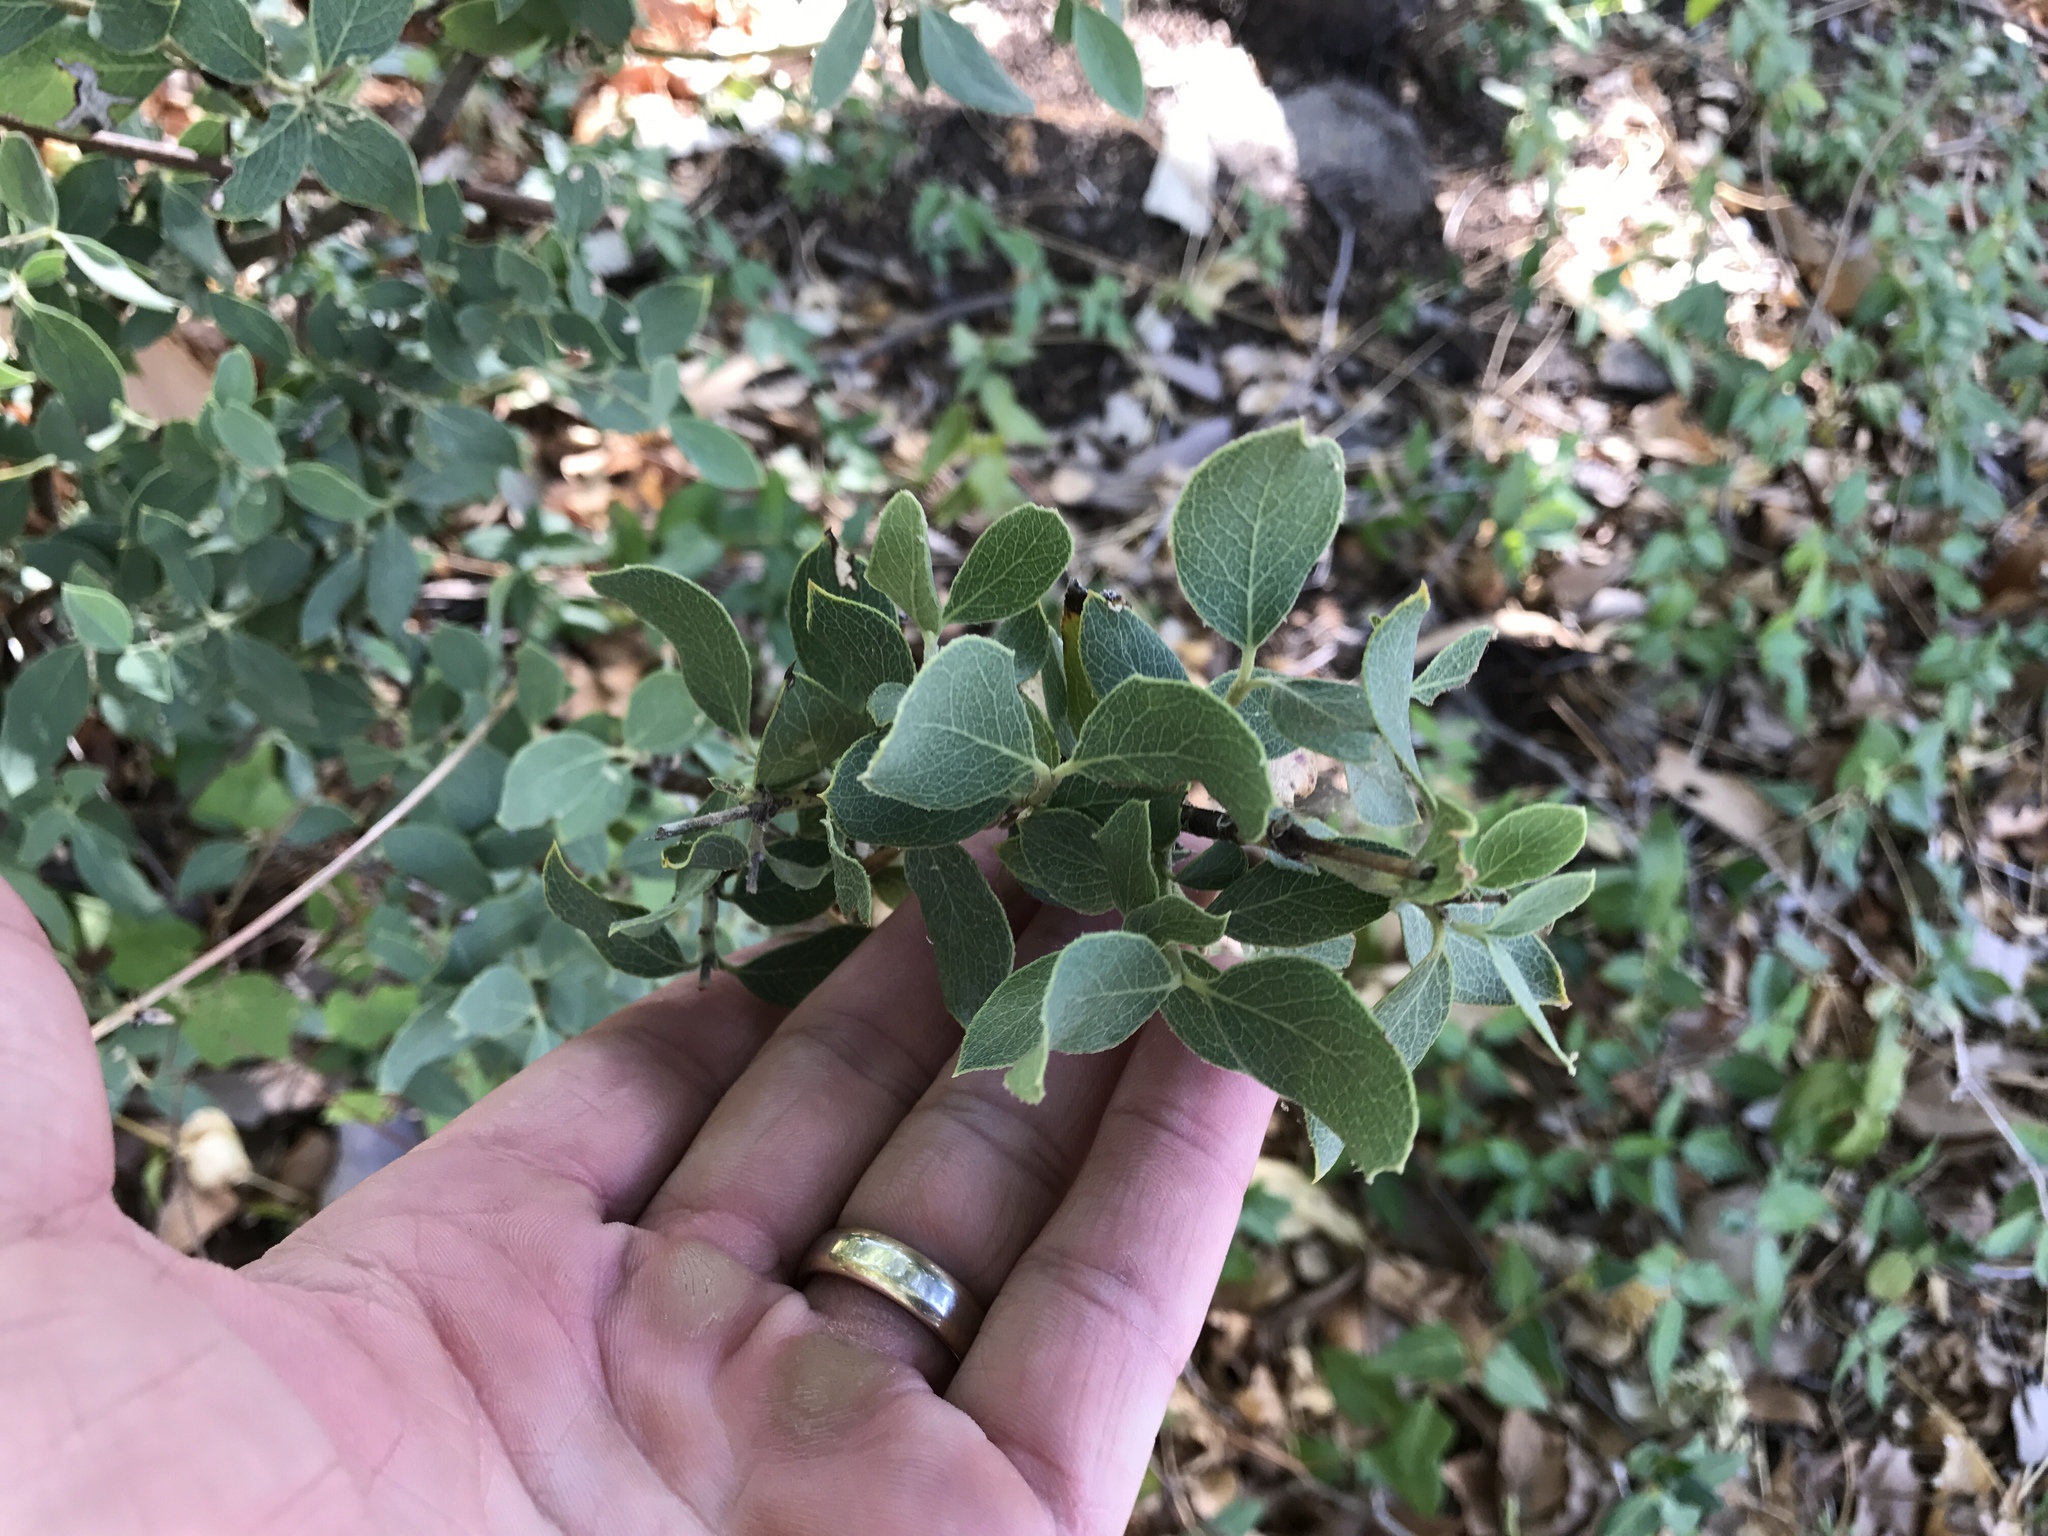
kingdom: Plantae
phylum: Tracheophyta
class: Magnoliopsida
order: Gentianales
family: Apocynaceae
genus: Vinca
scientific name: Vinca major
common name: Greater periwinkle
